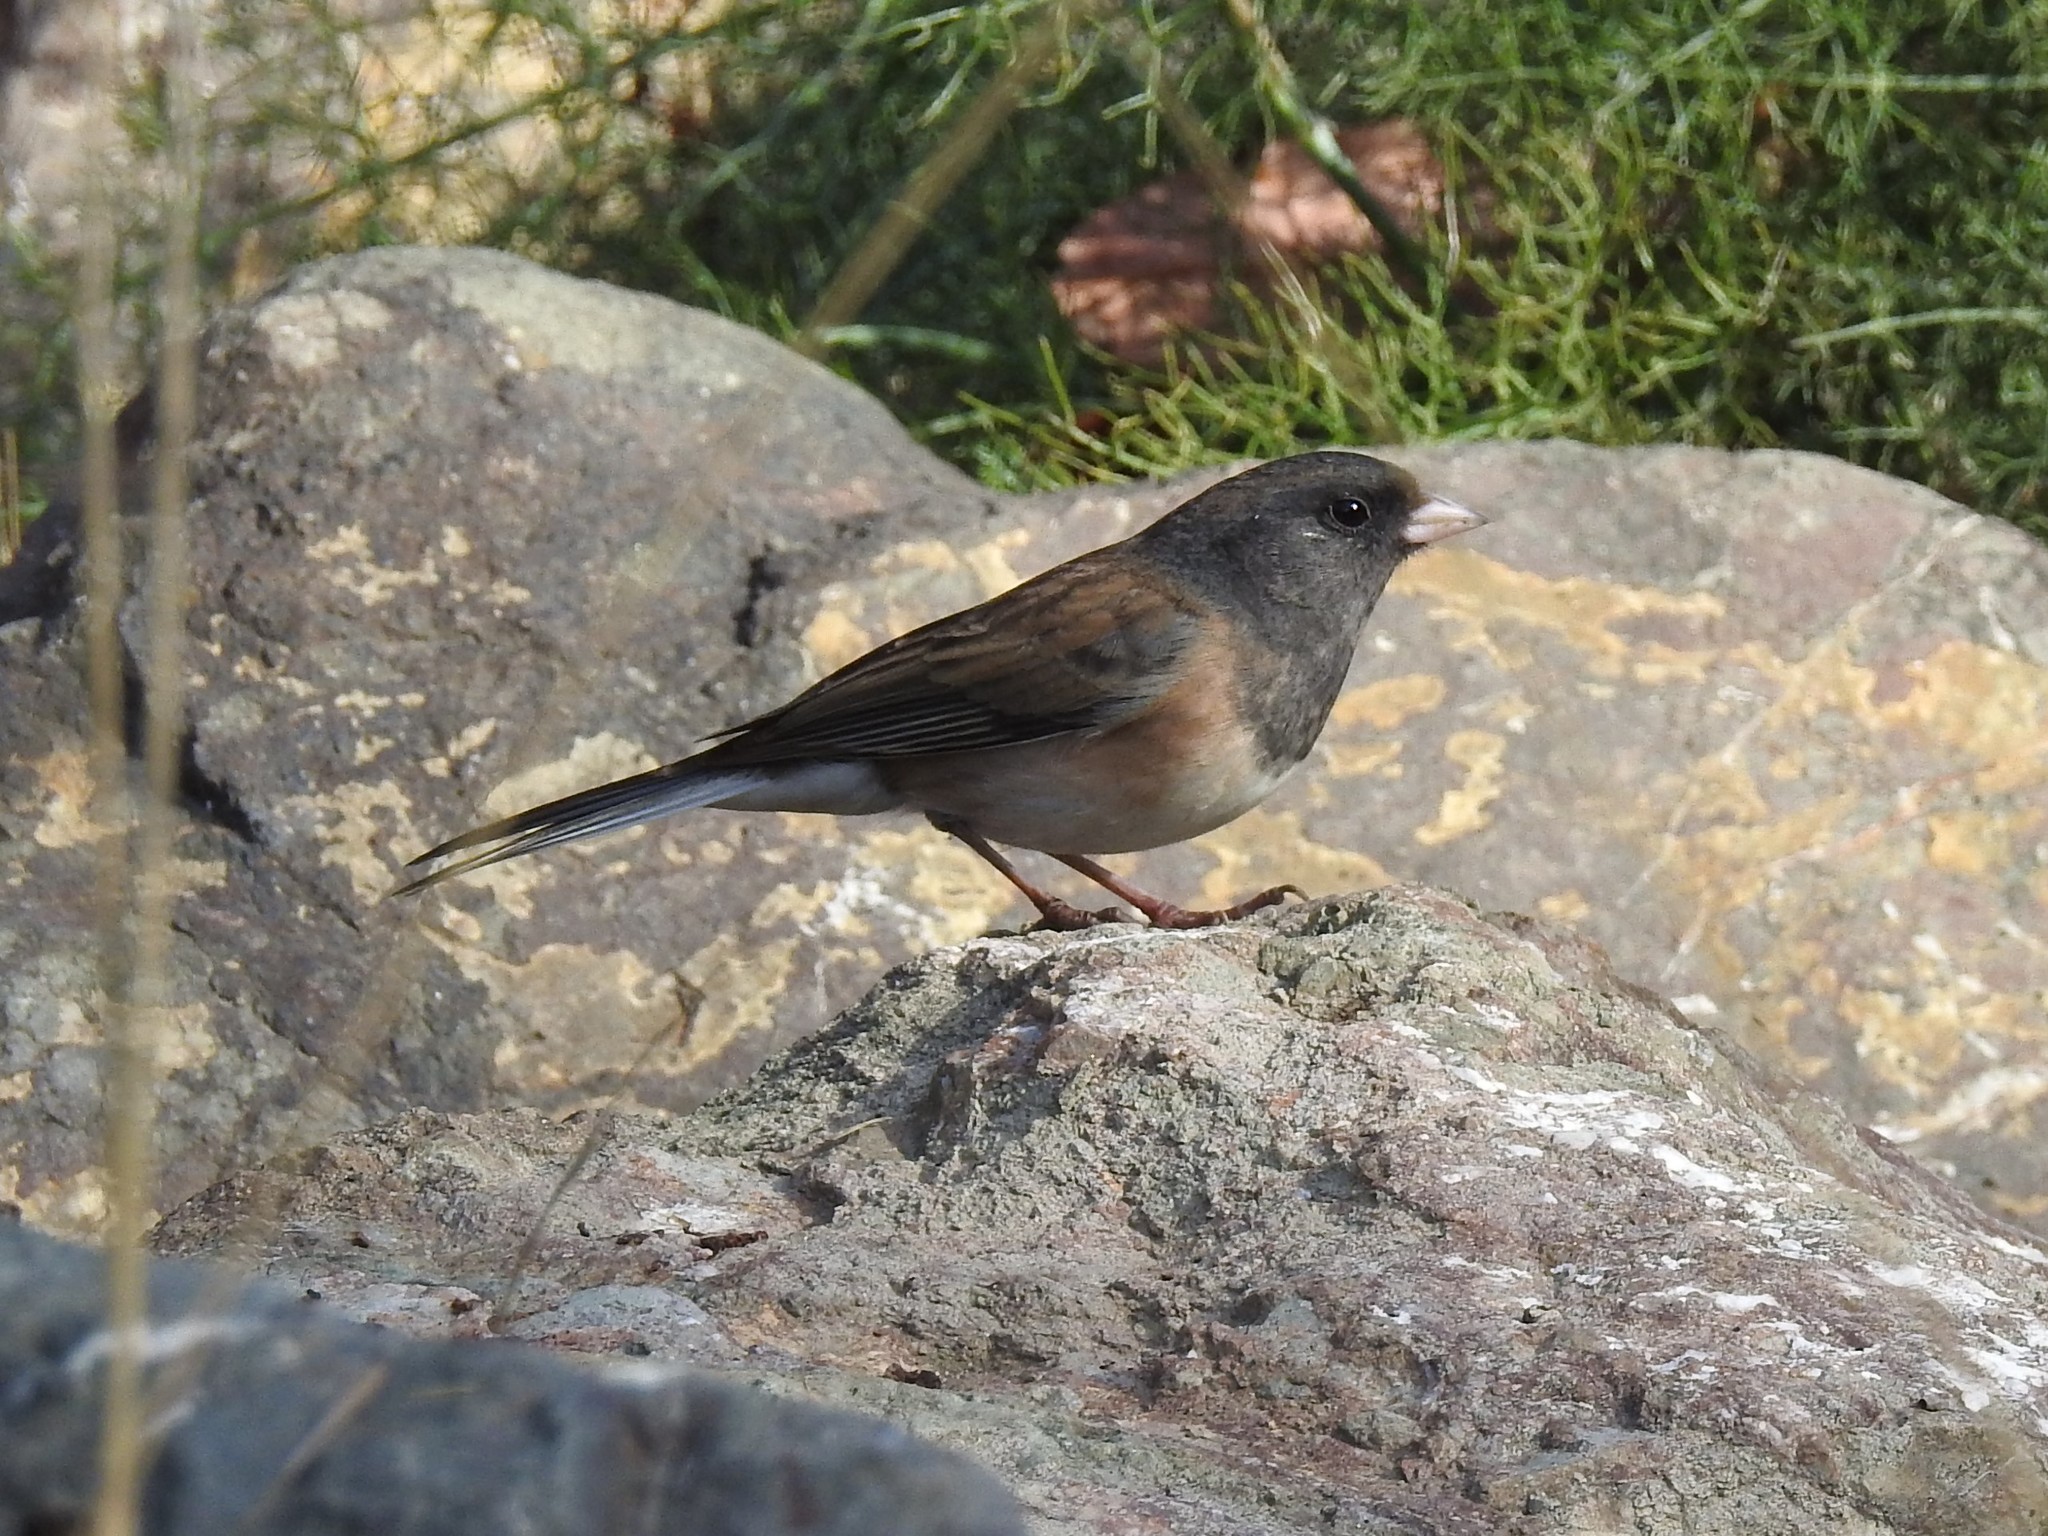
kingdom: Animalia
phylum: Chordata
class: Aves
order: Passeriformes
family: Passerellidae
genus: Junco
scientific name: Junco hyemalis
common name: Dark-eyed junco
